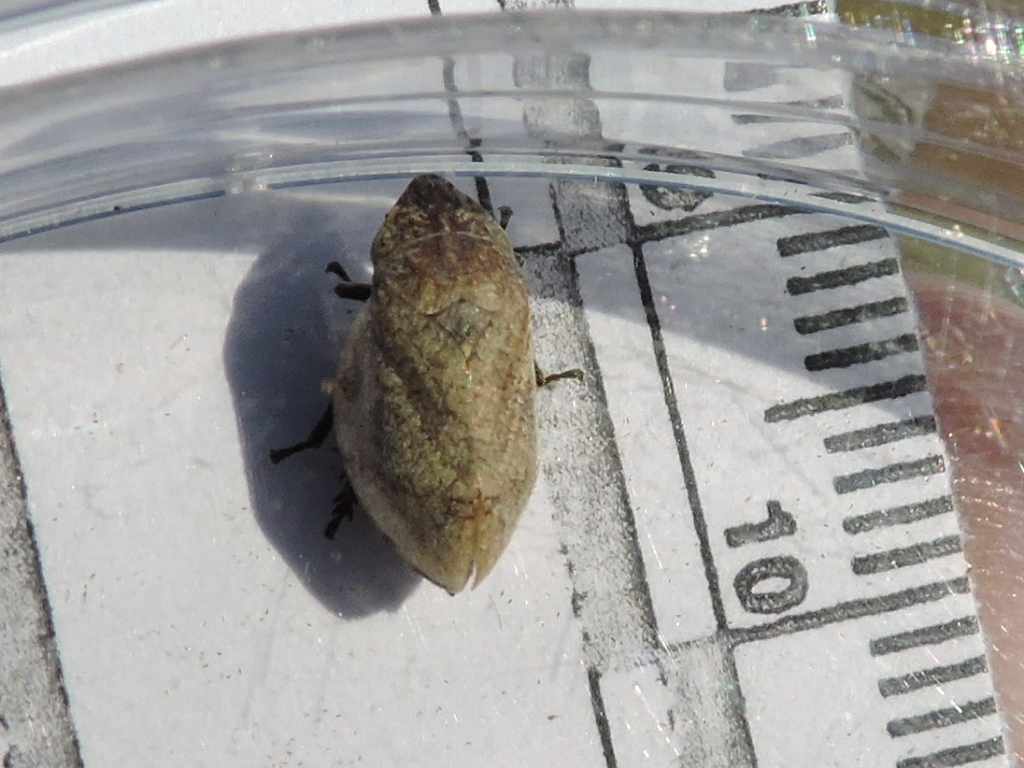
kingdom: Animalia
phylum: Arthropoda
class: Insecta
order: Hemiptera
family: Aphrophoridae
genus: Lepyronia
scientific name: Lepyronia gibbosa
